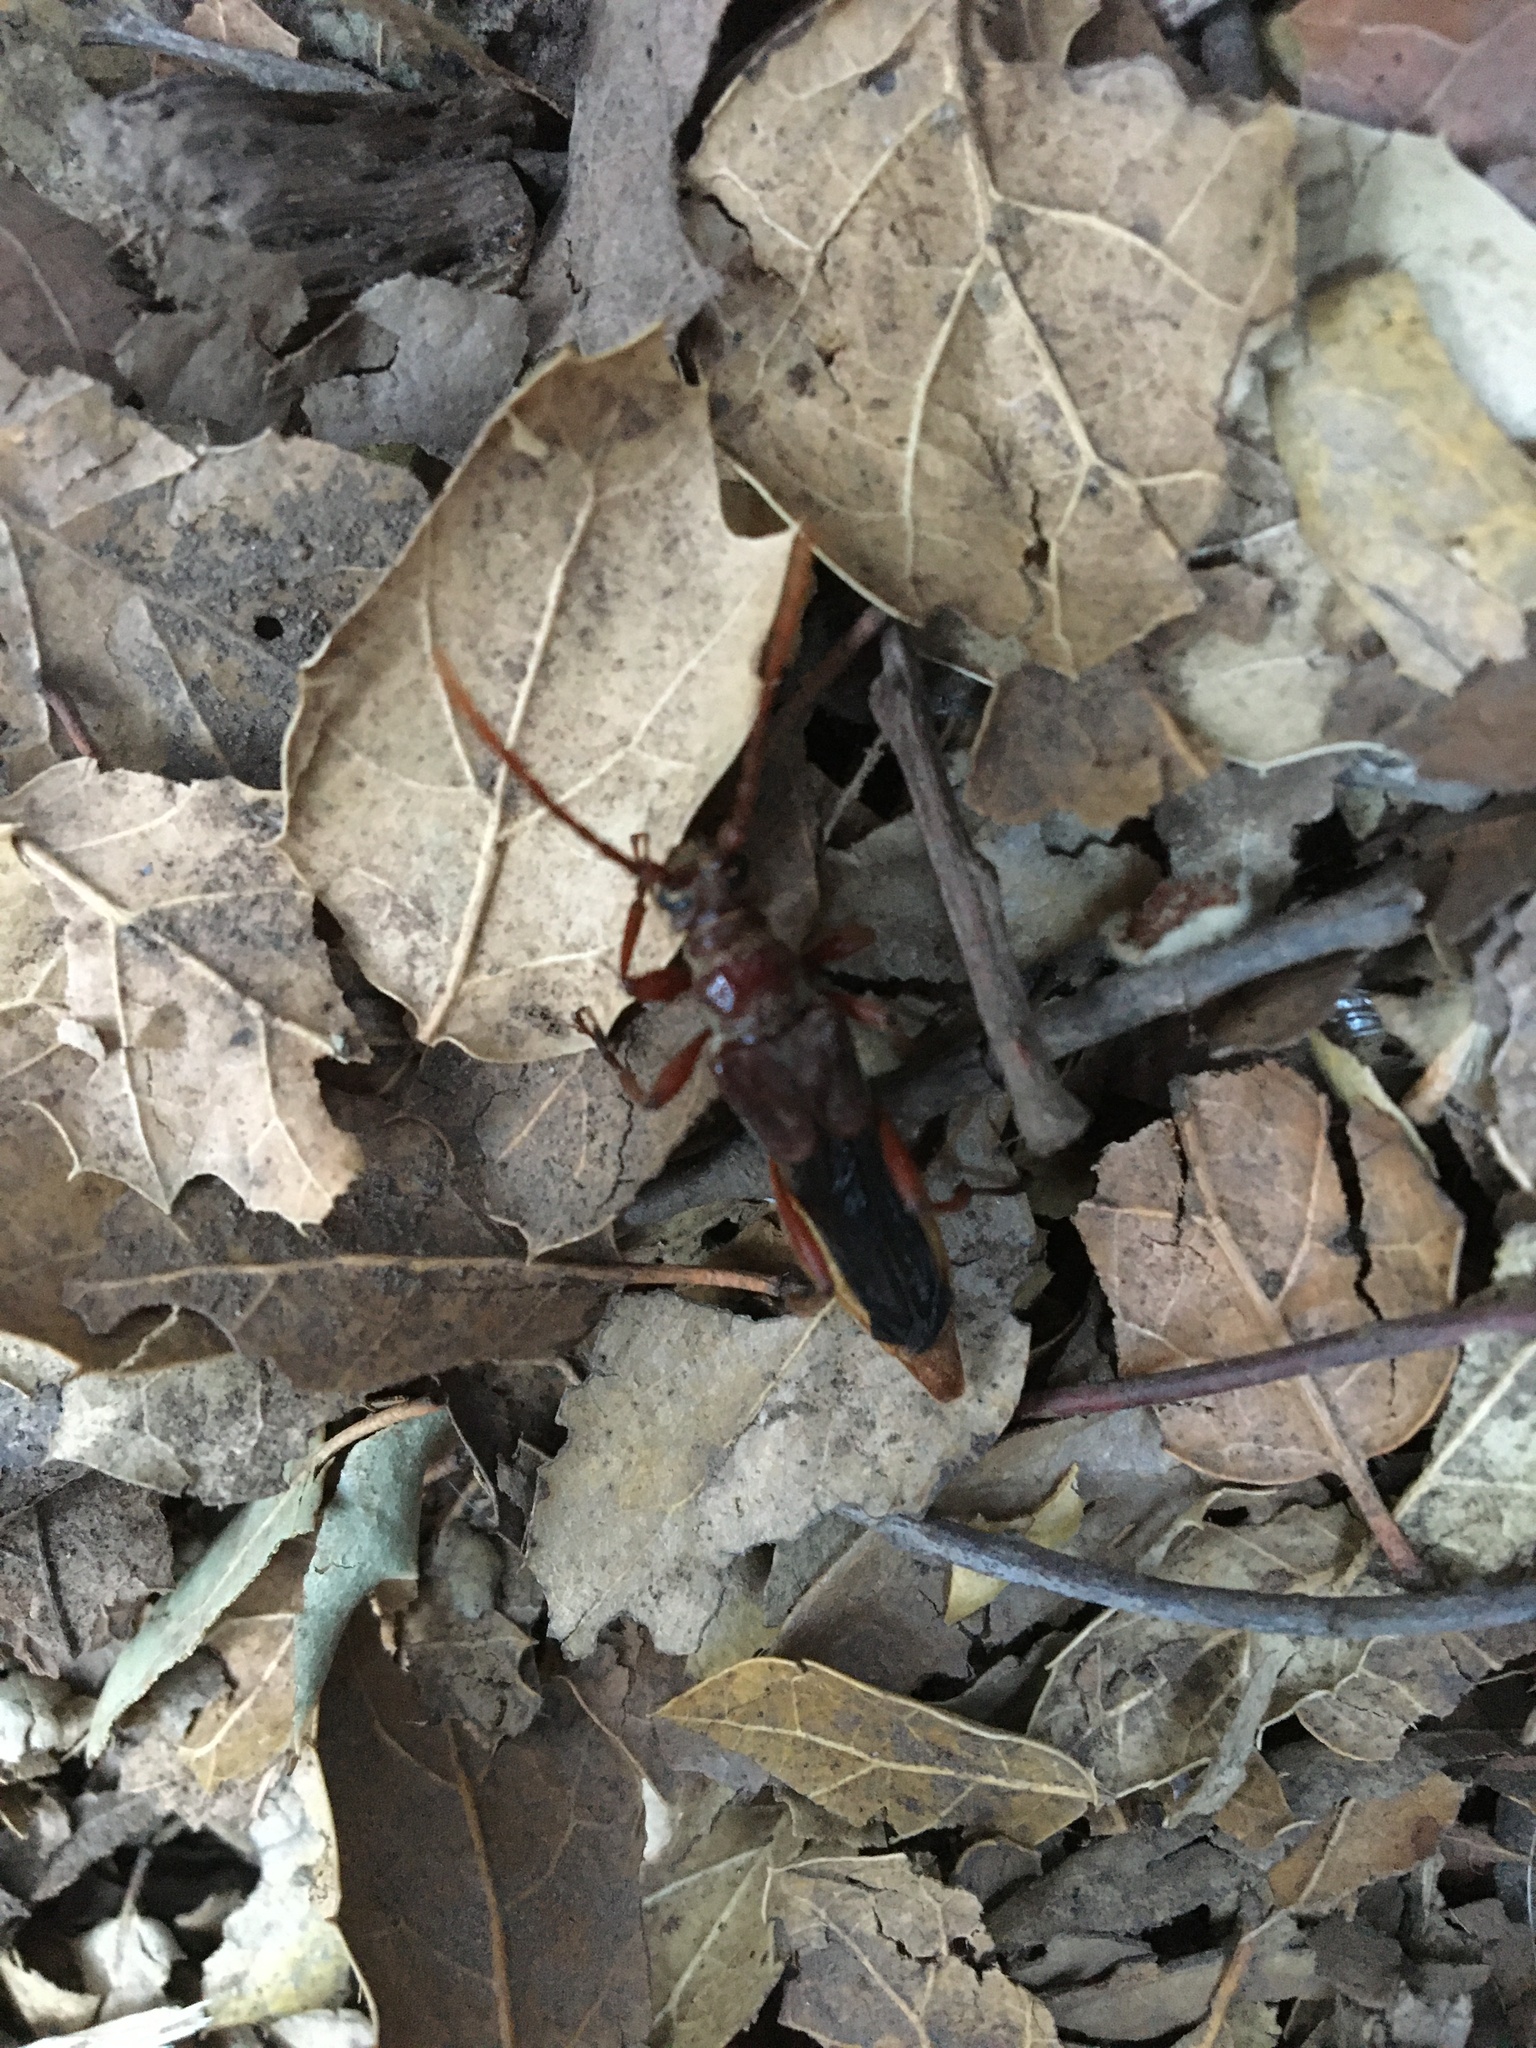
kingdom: Animalia
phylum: Arthropoda
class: Insecta
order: Coleoptera
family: Cerambycidae
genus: Necydalis
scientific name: Necydalis cavipennis
